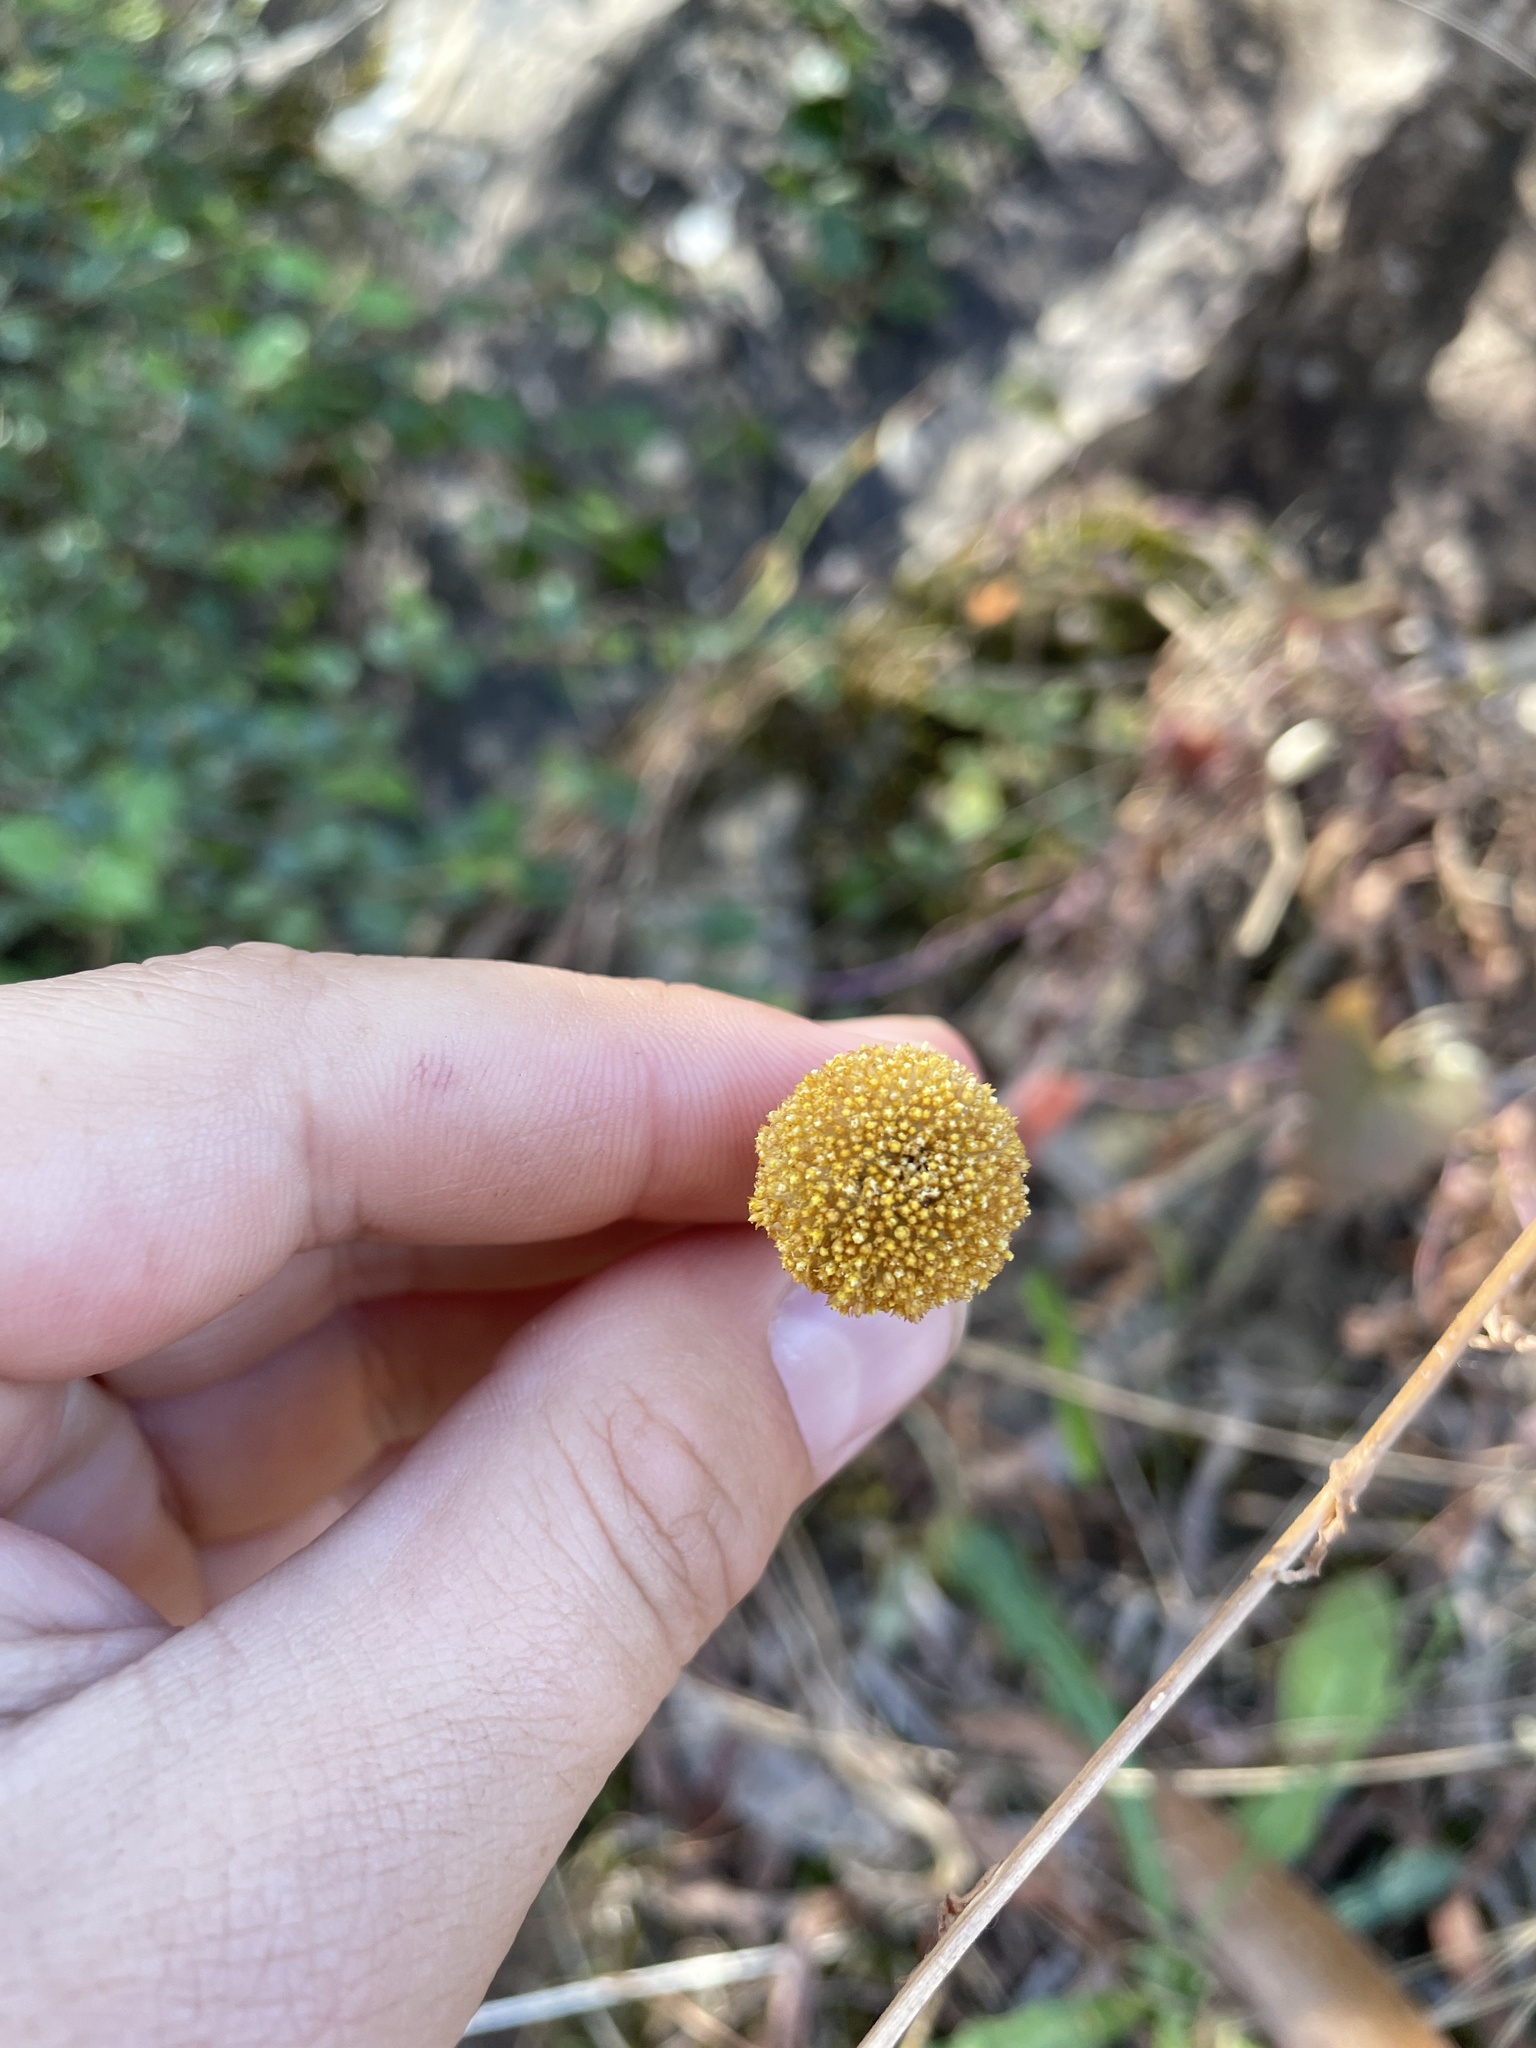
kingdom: Plantae
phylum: Tracheophyta
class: Magnoliopsida
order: Asterales
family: Asteraceae
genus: Craspedia
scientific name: Craspedia variabilis
